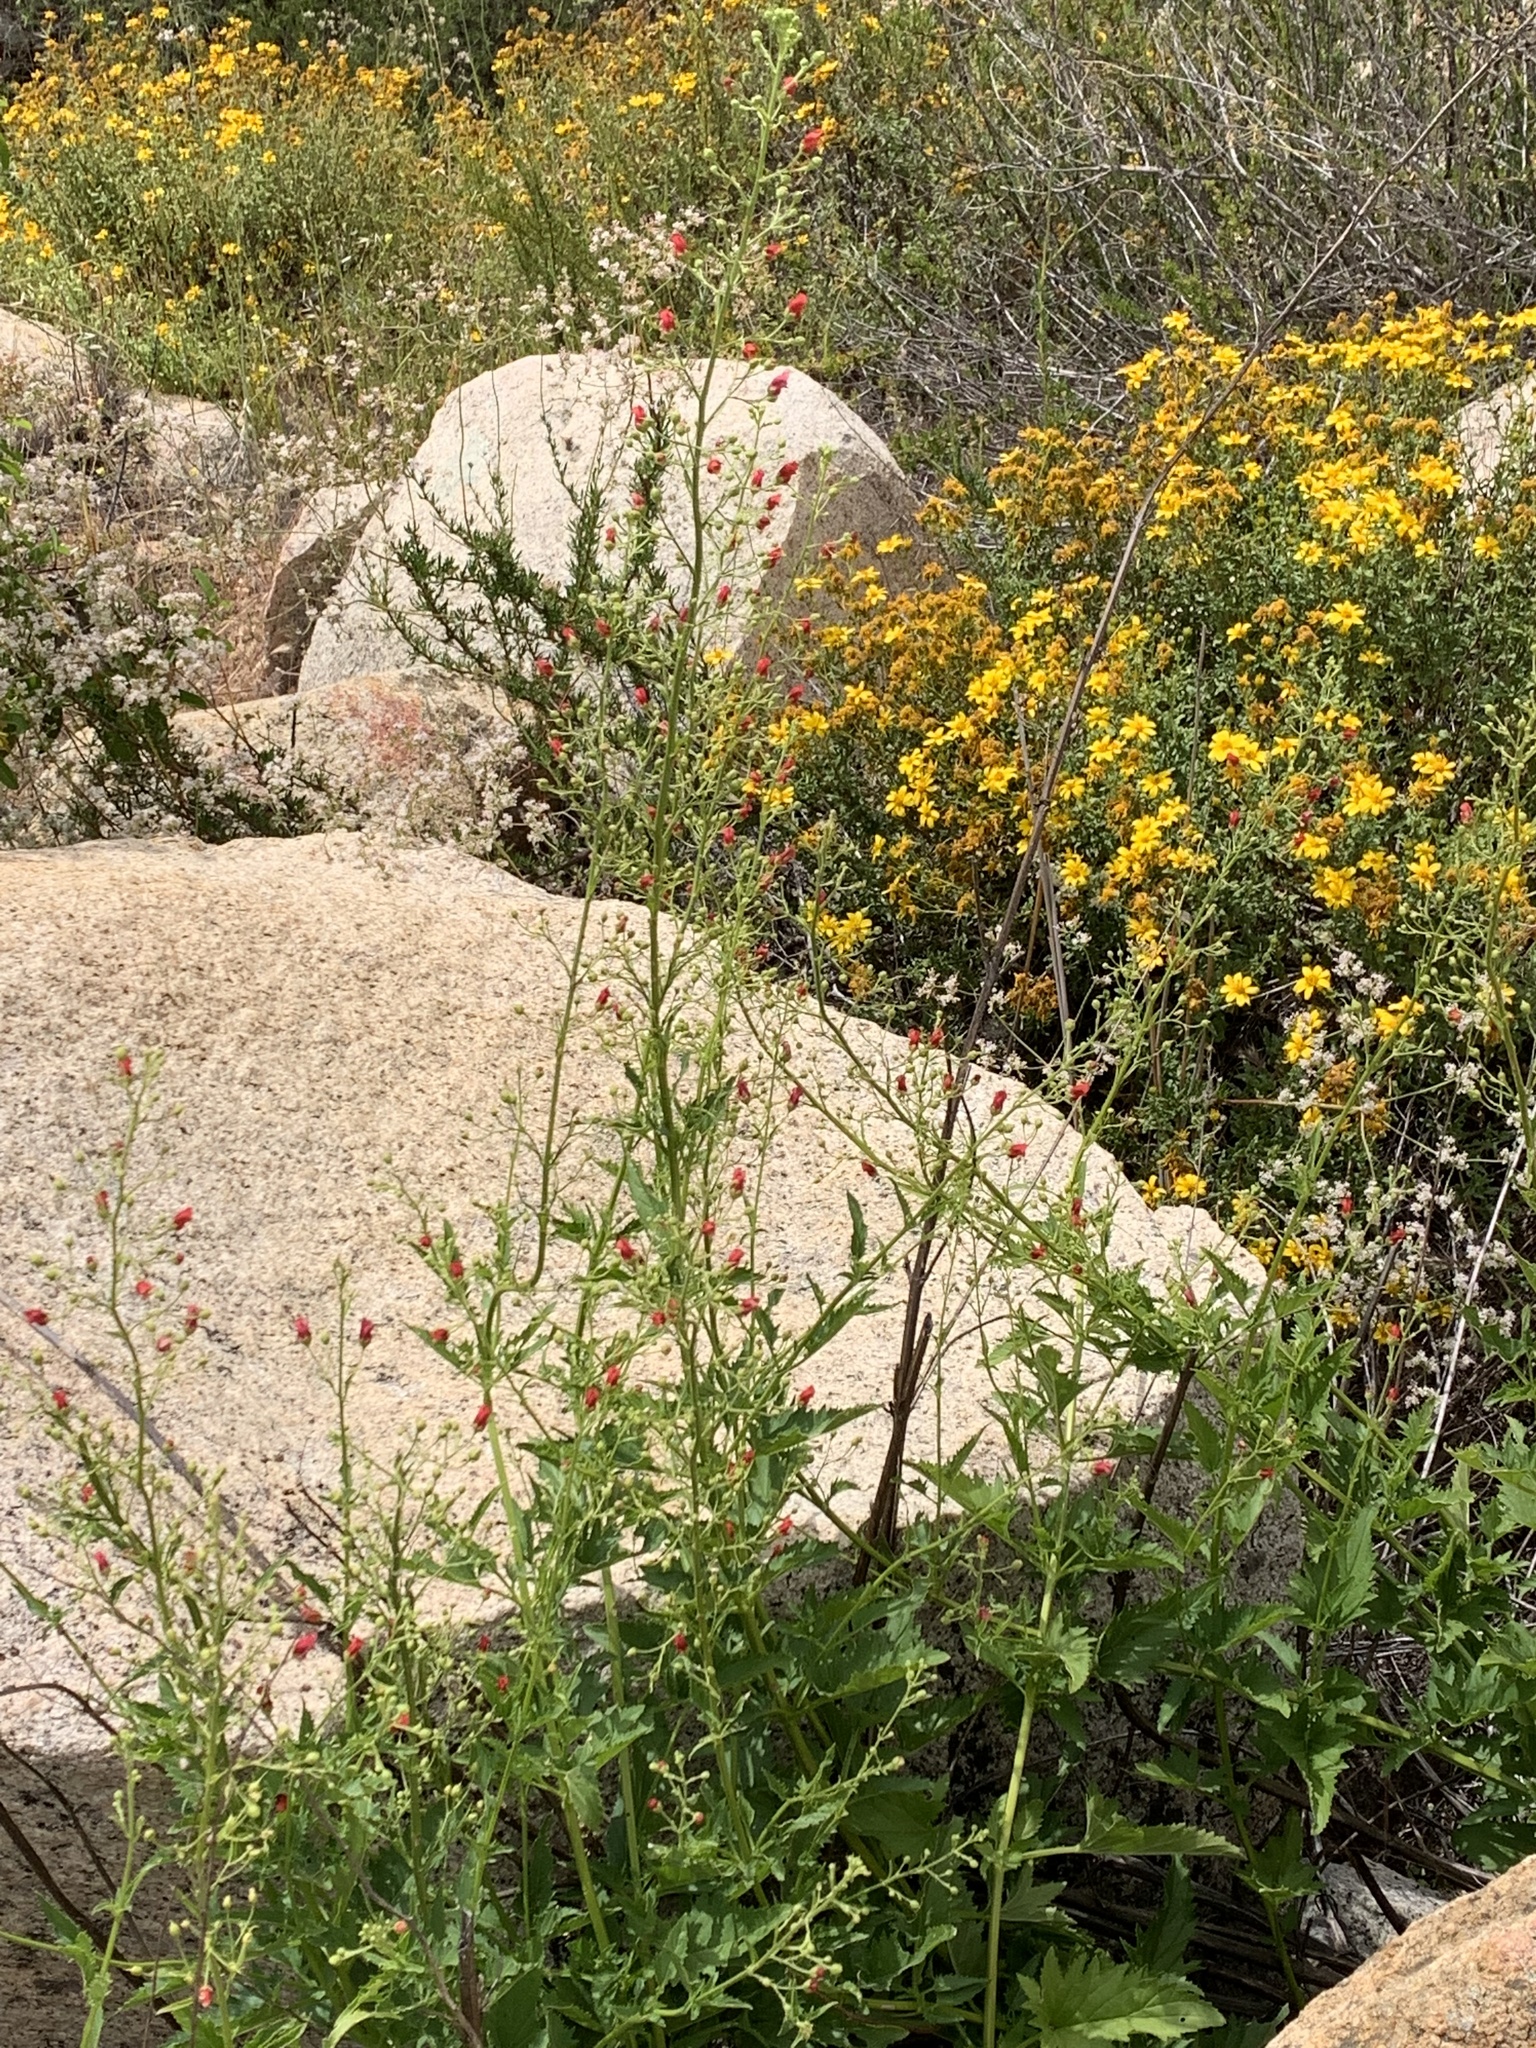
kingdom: Plantae
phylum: Tracheophyta
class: Magnoliopsida
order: Lamiales
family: Scrophulariaceae
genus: Scrophularia
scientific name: Scrophularia californica
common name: California figwort
